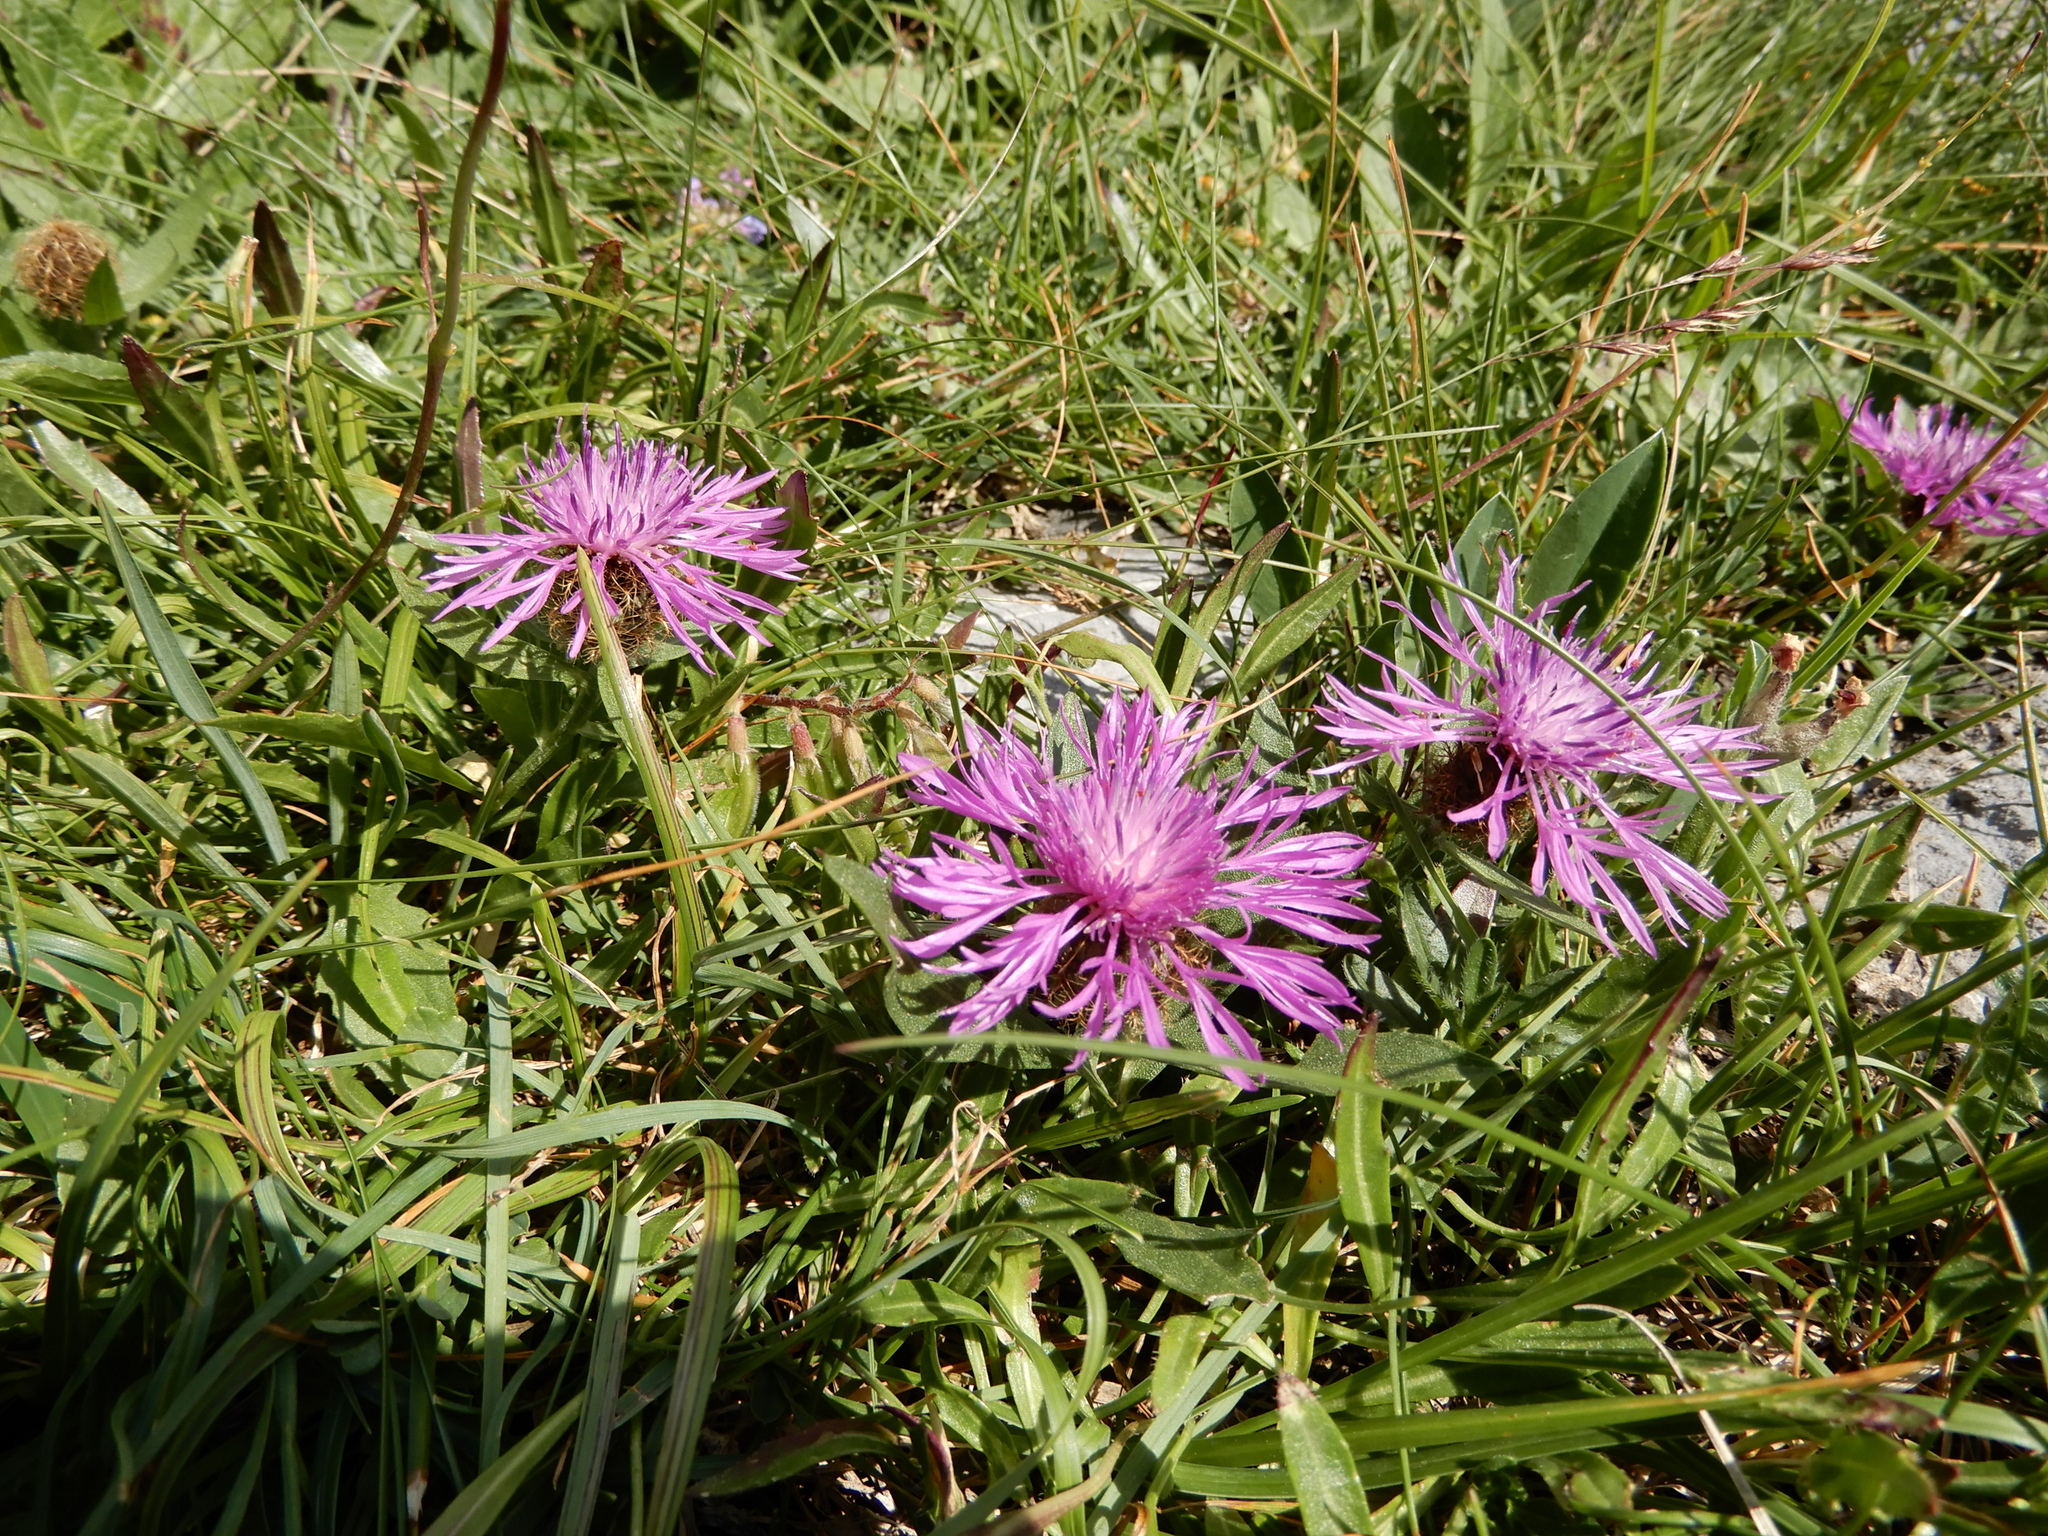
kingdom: Plantae
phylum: Tracheophyta
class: Magnoliopsida
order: Asterales
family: Asteraceae
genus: Centaurea
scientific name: Centaurea rhaetica
